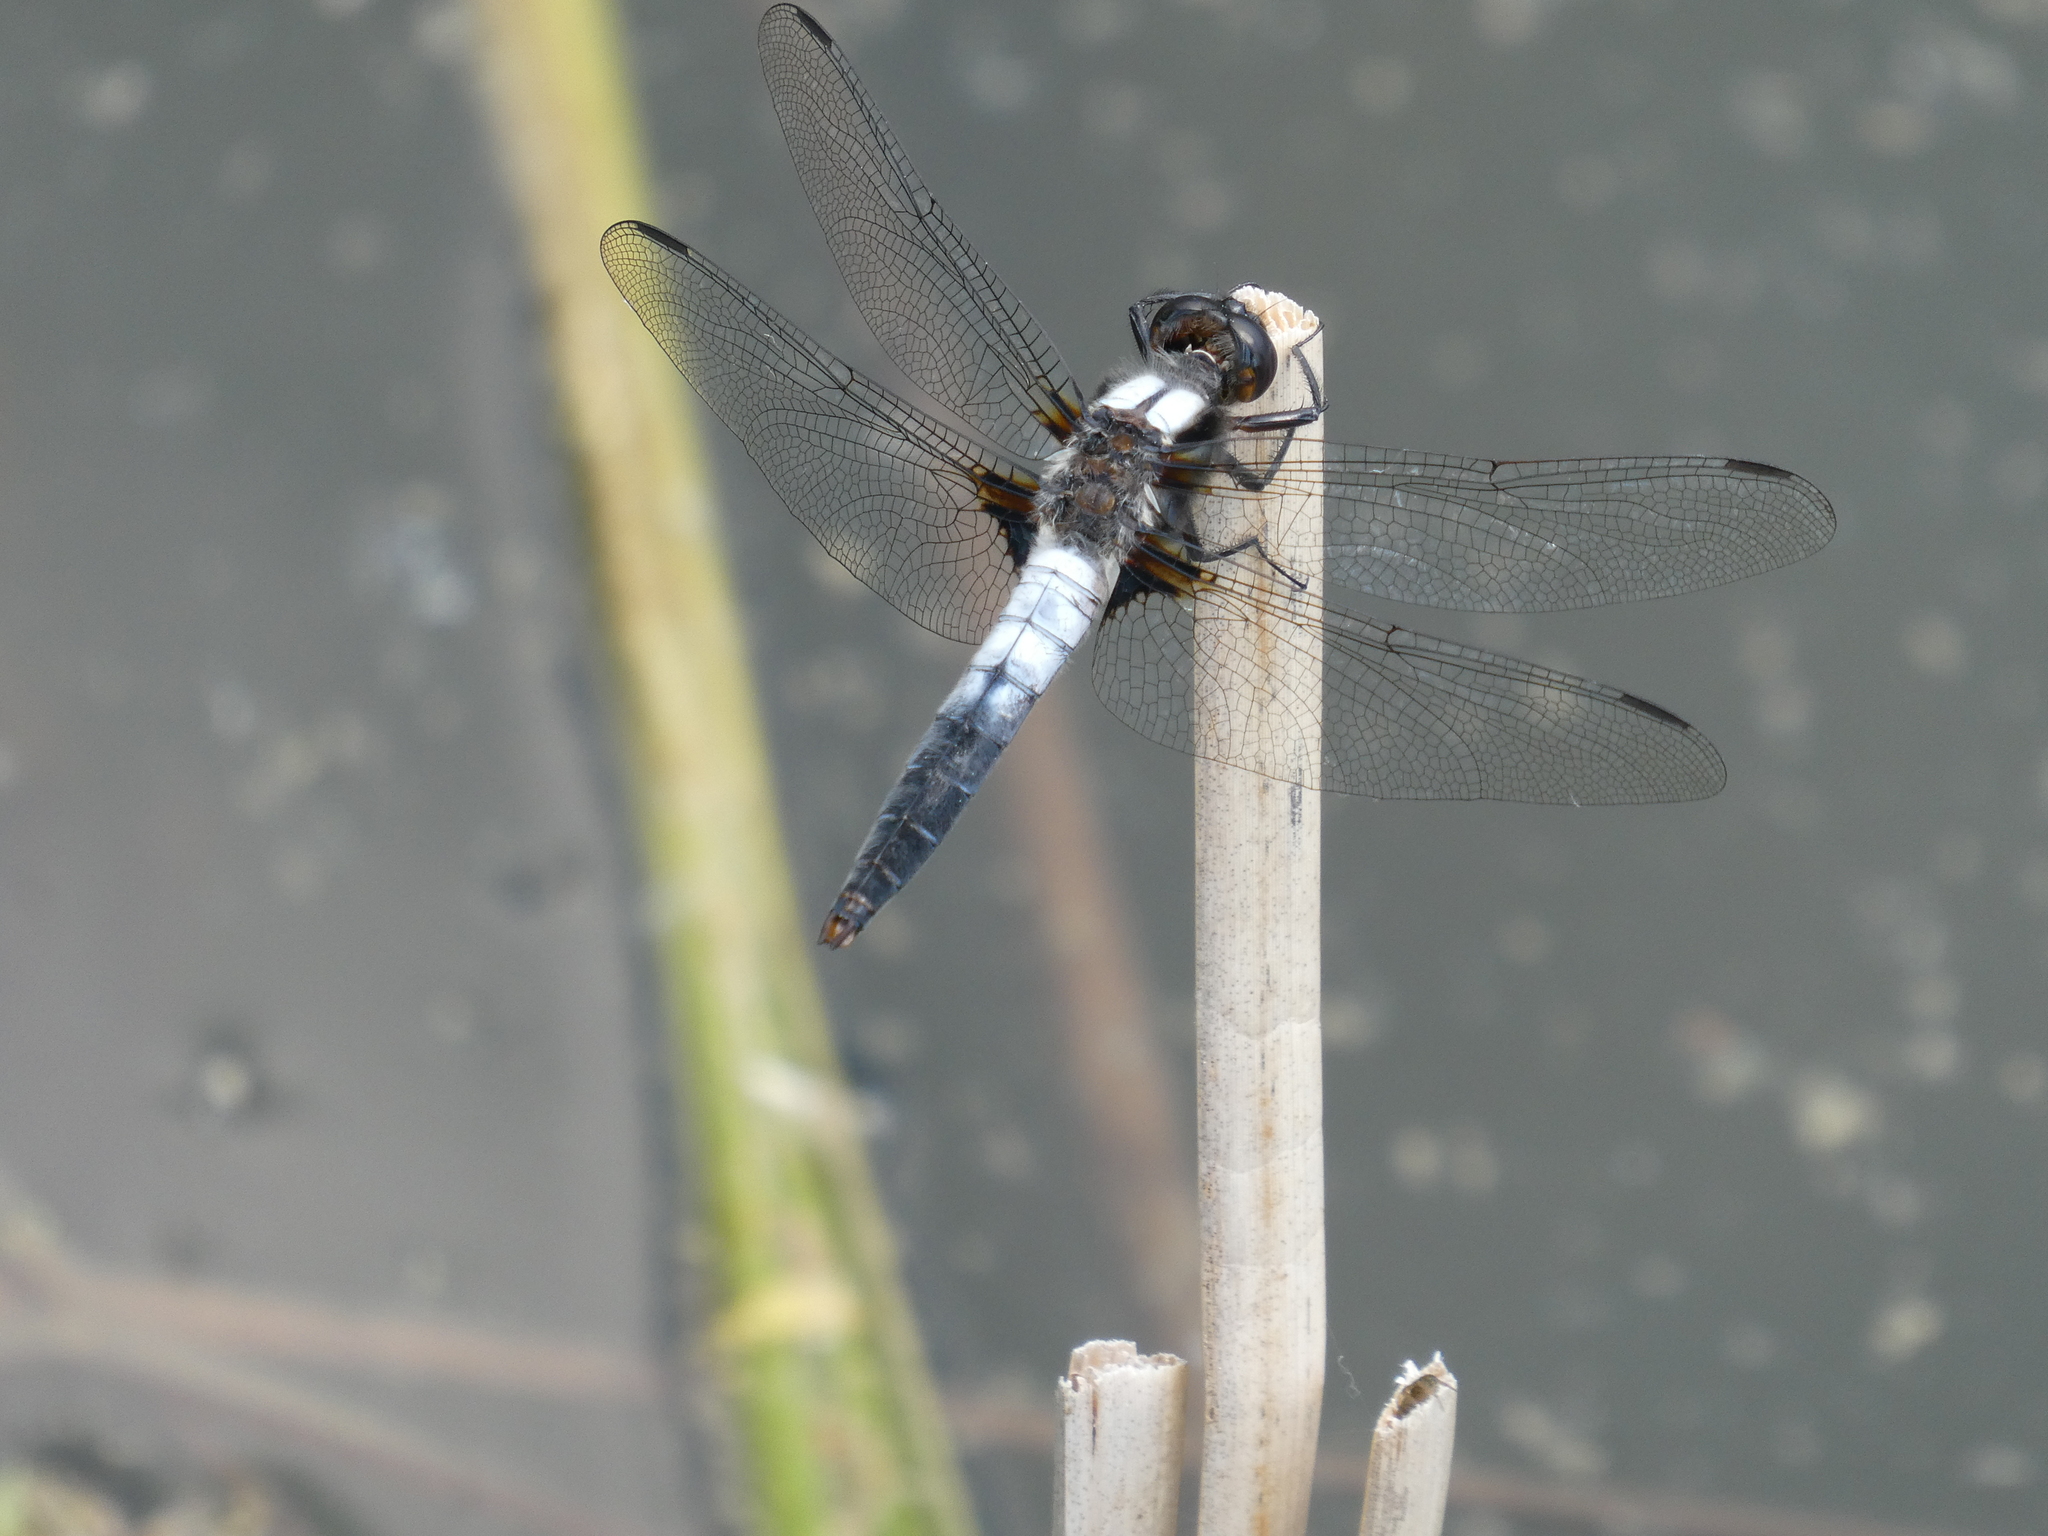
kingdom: Animalia
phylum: Arthropoda
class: Insecta
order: Odonata
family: Libellulidae
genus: Ladona
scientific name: Ladona julia
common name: Chalk-fronted corporal
